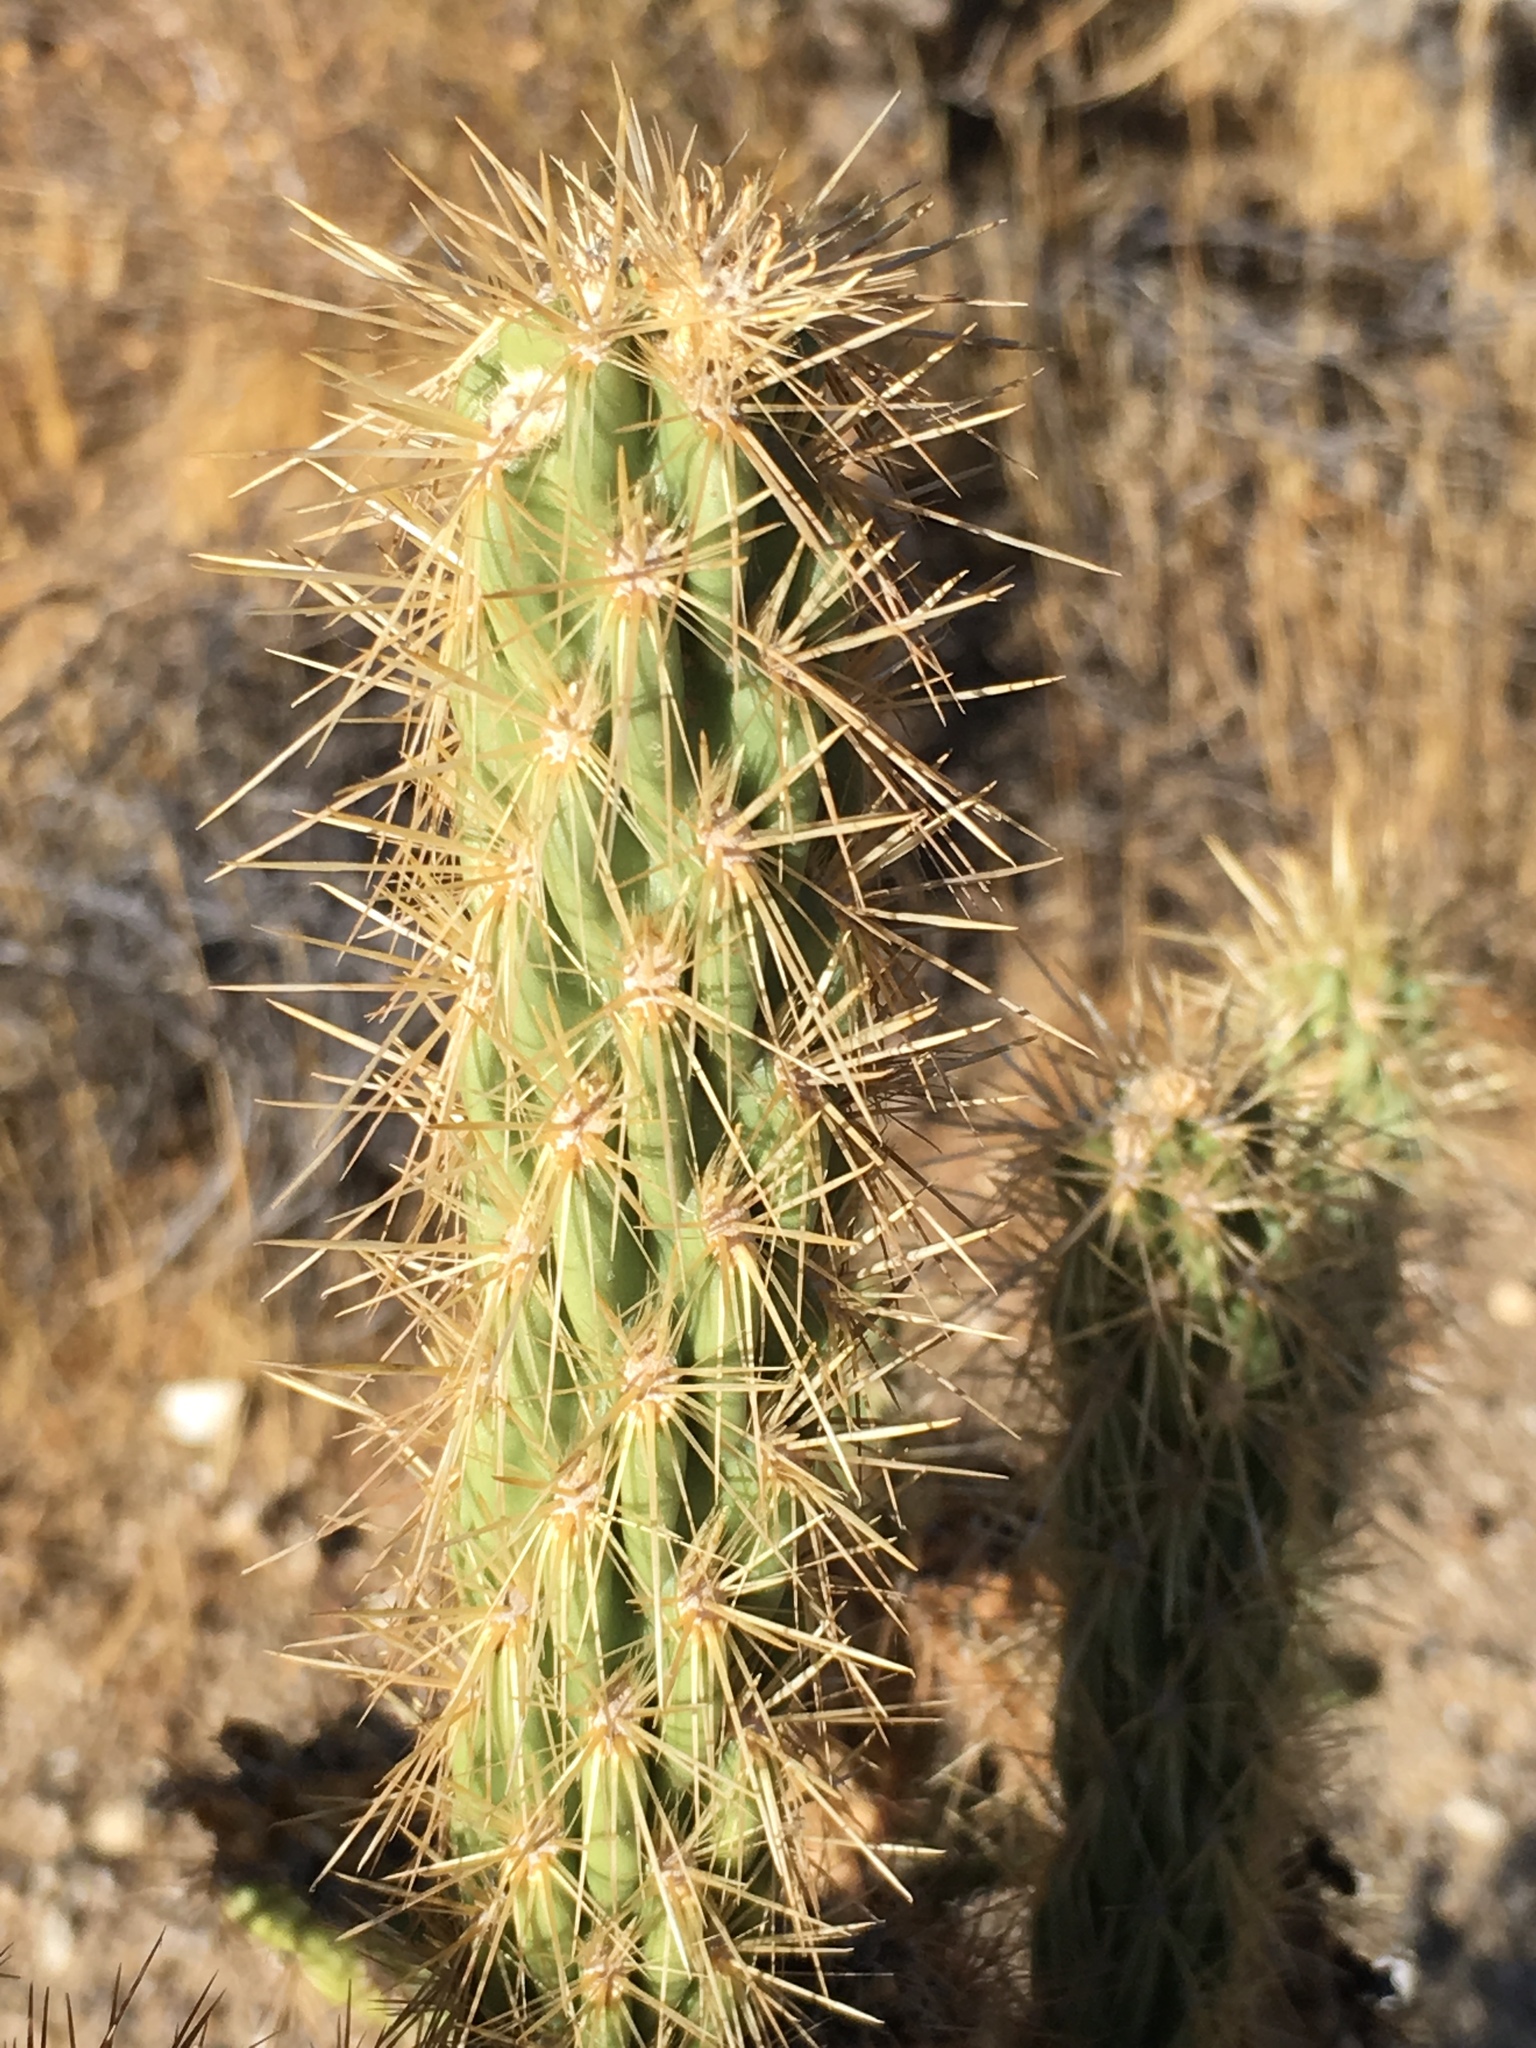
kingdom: Plantae
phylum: Tracheophyta
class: Magnoliopsida
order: Caryophyllales
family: Cactaceae
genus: Cylindropuntia
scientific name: Cylindropuntia ganderi
